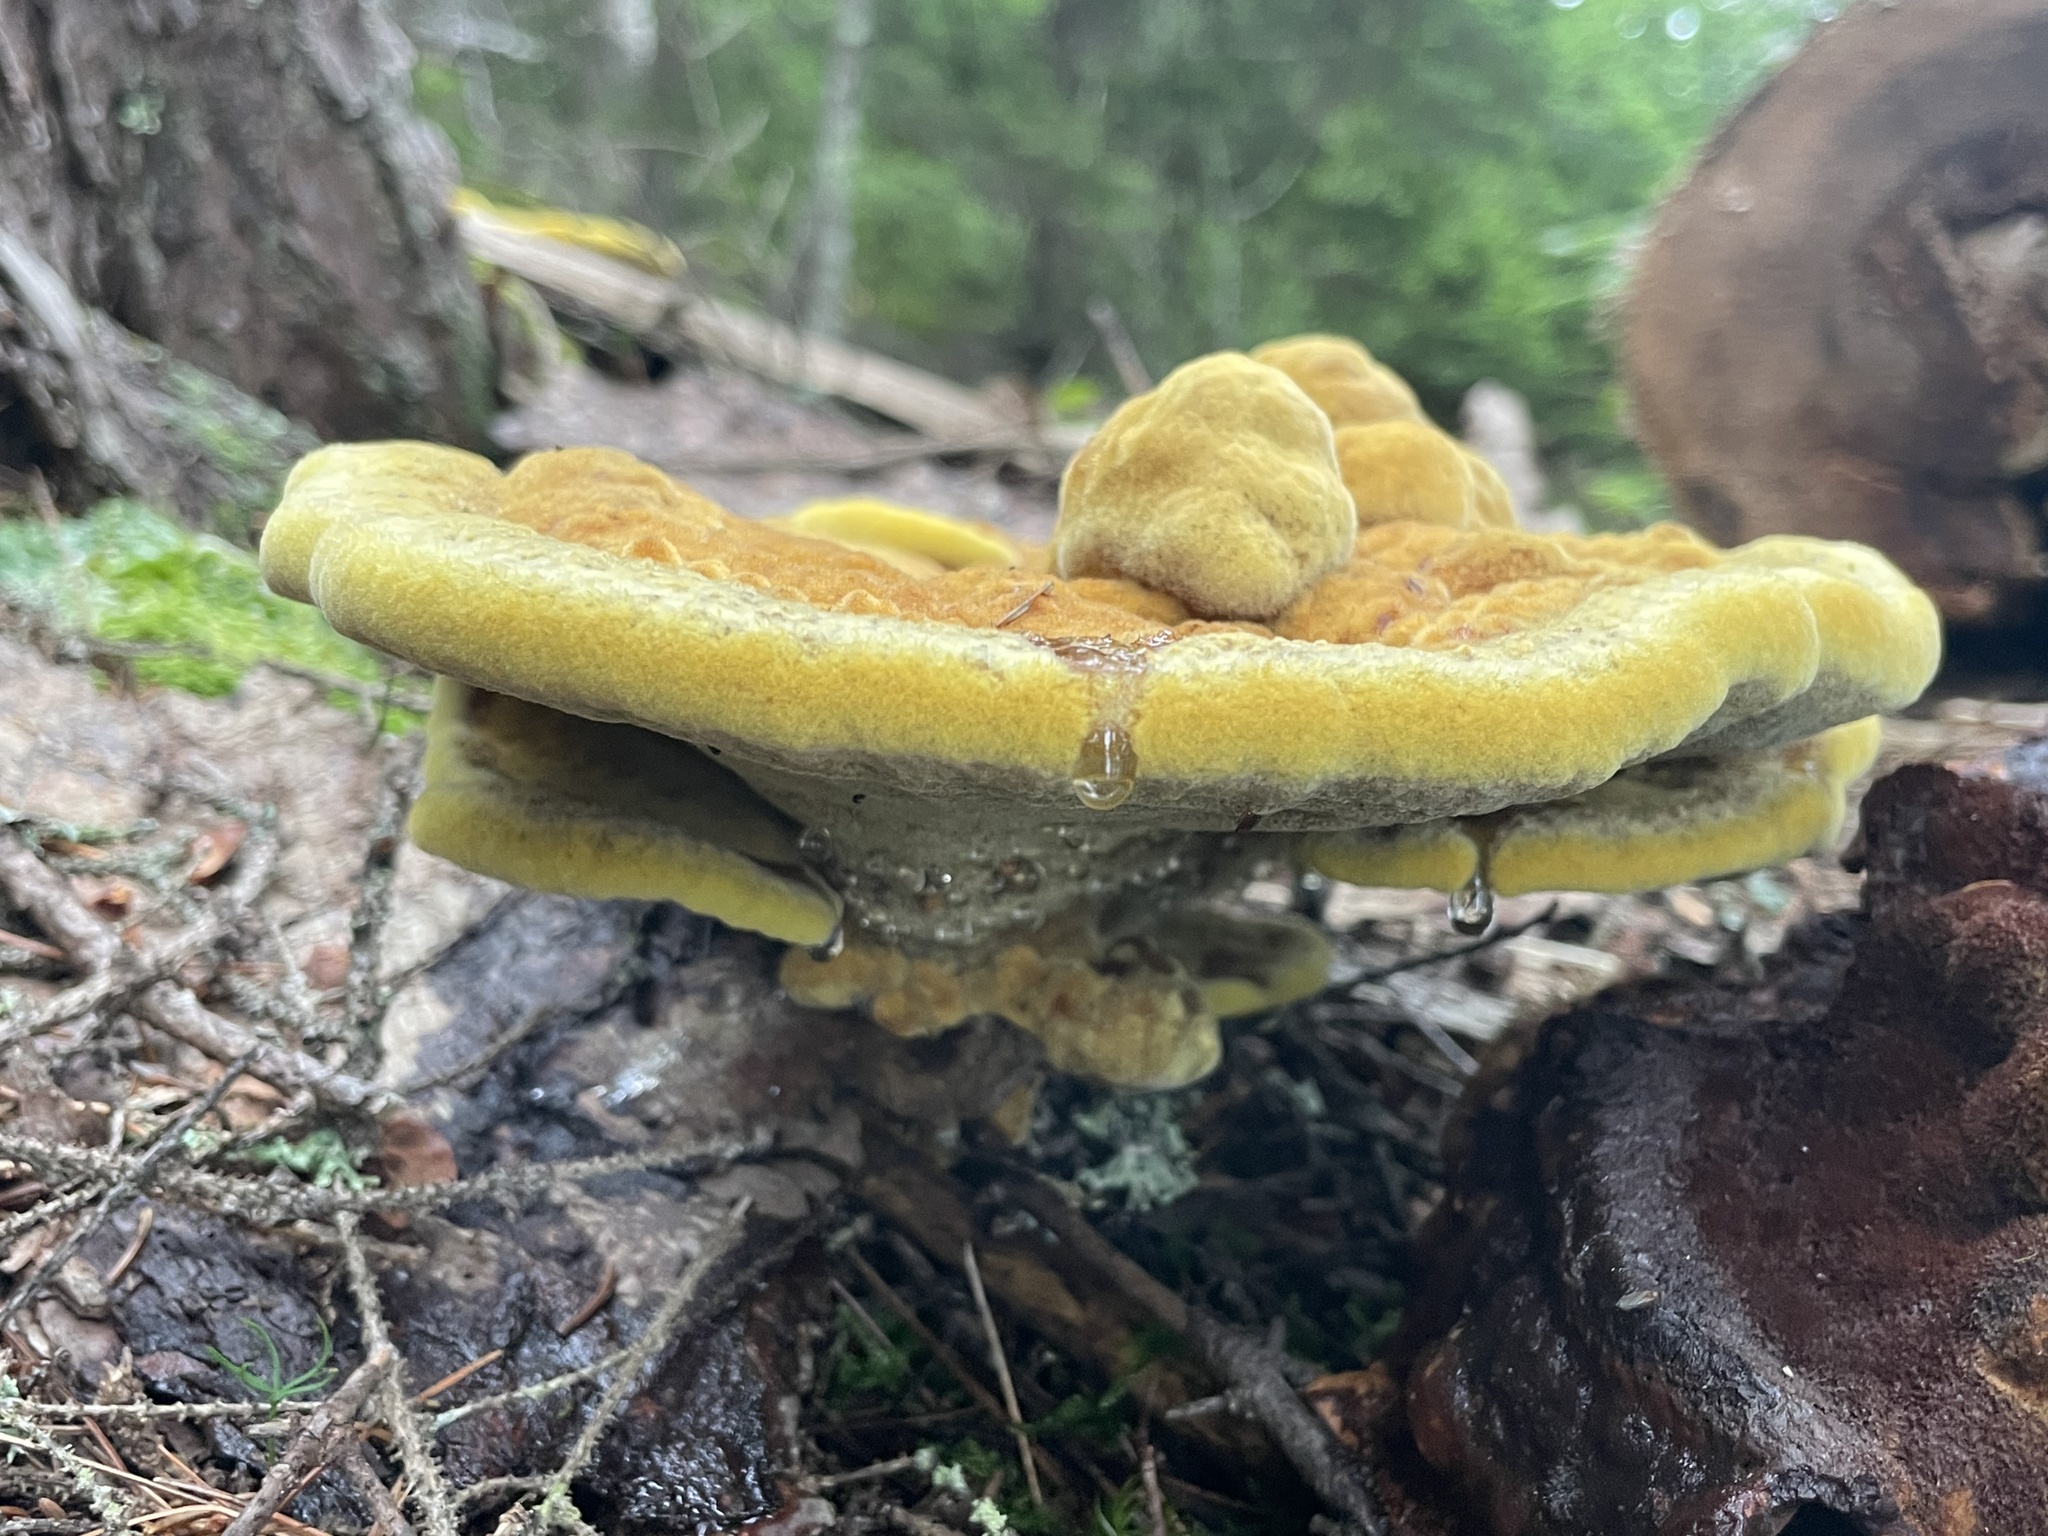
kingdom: Fungi
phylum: Basidiomycota
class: Agaricomycetes
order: Polyporales
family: Laetiporaceae
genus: Phaeolus
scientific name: Phaeolus schweinitzii
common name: Dyer's mazegill
